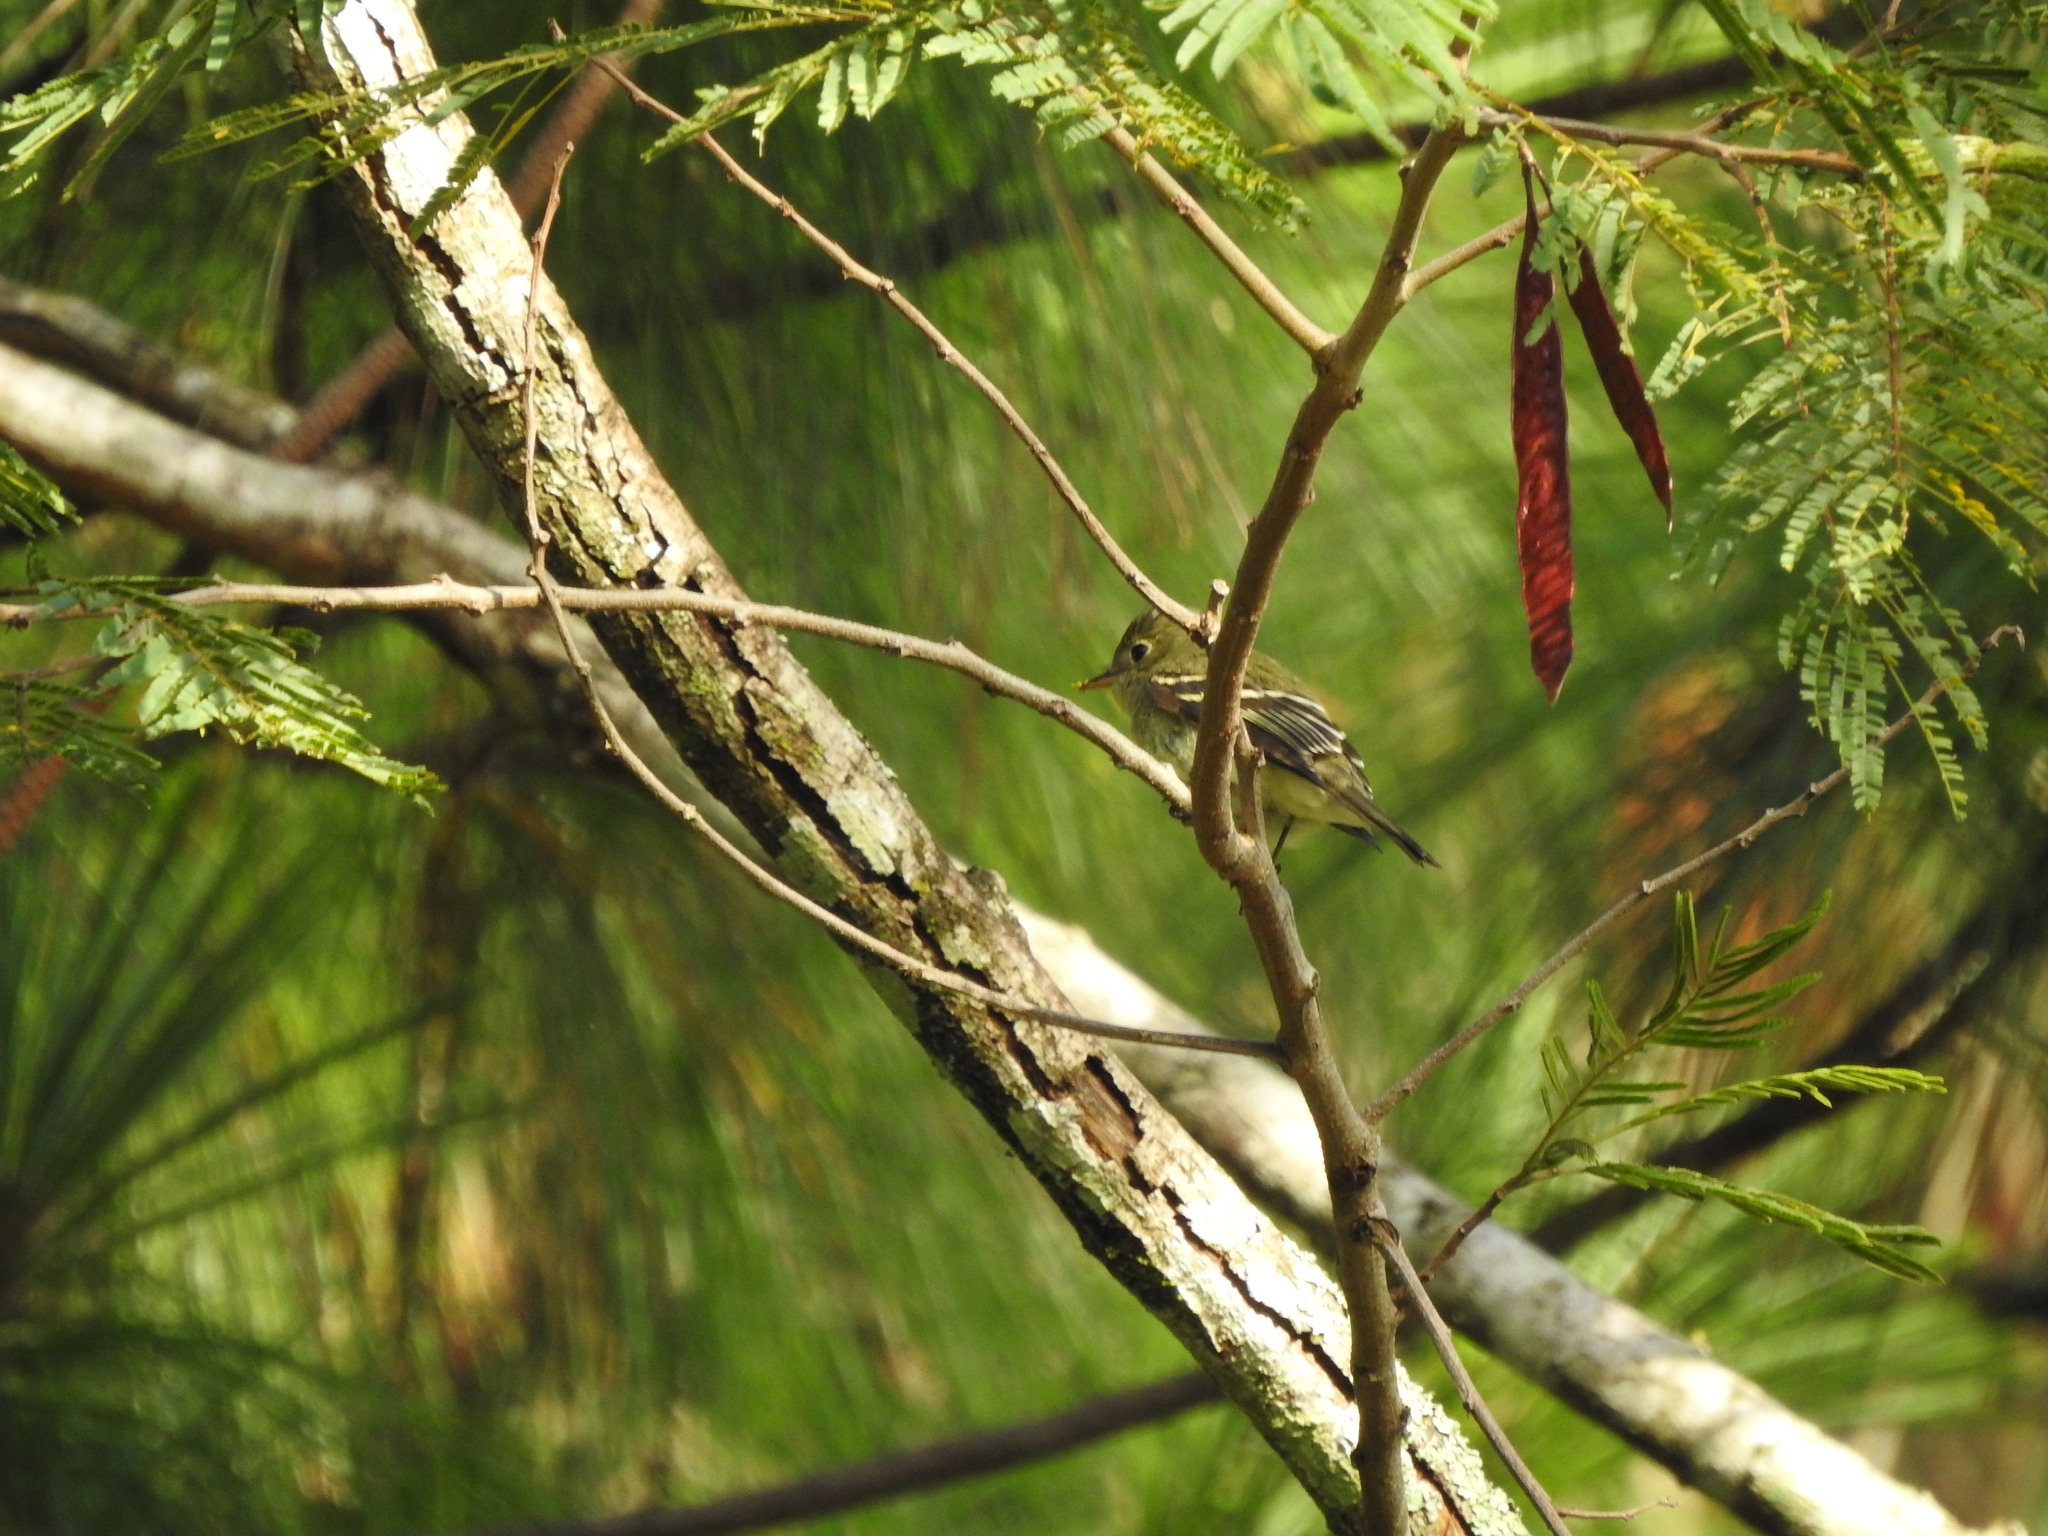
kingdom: Animalia
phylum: Chordata
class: Aves
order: Passeriformes
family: Tyrannidae
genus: Empidonax
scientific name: Empidonax
